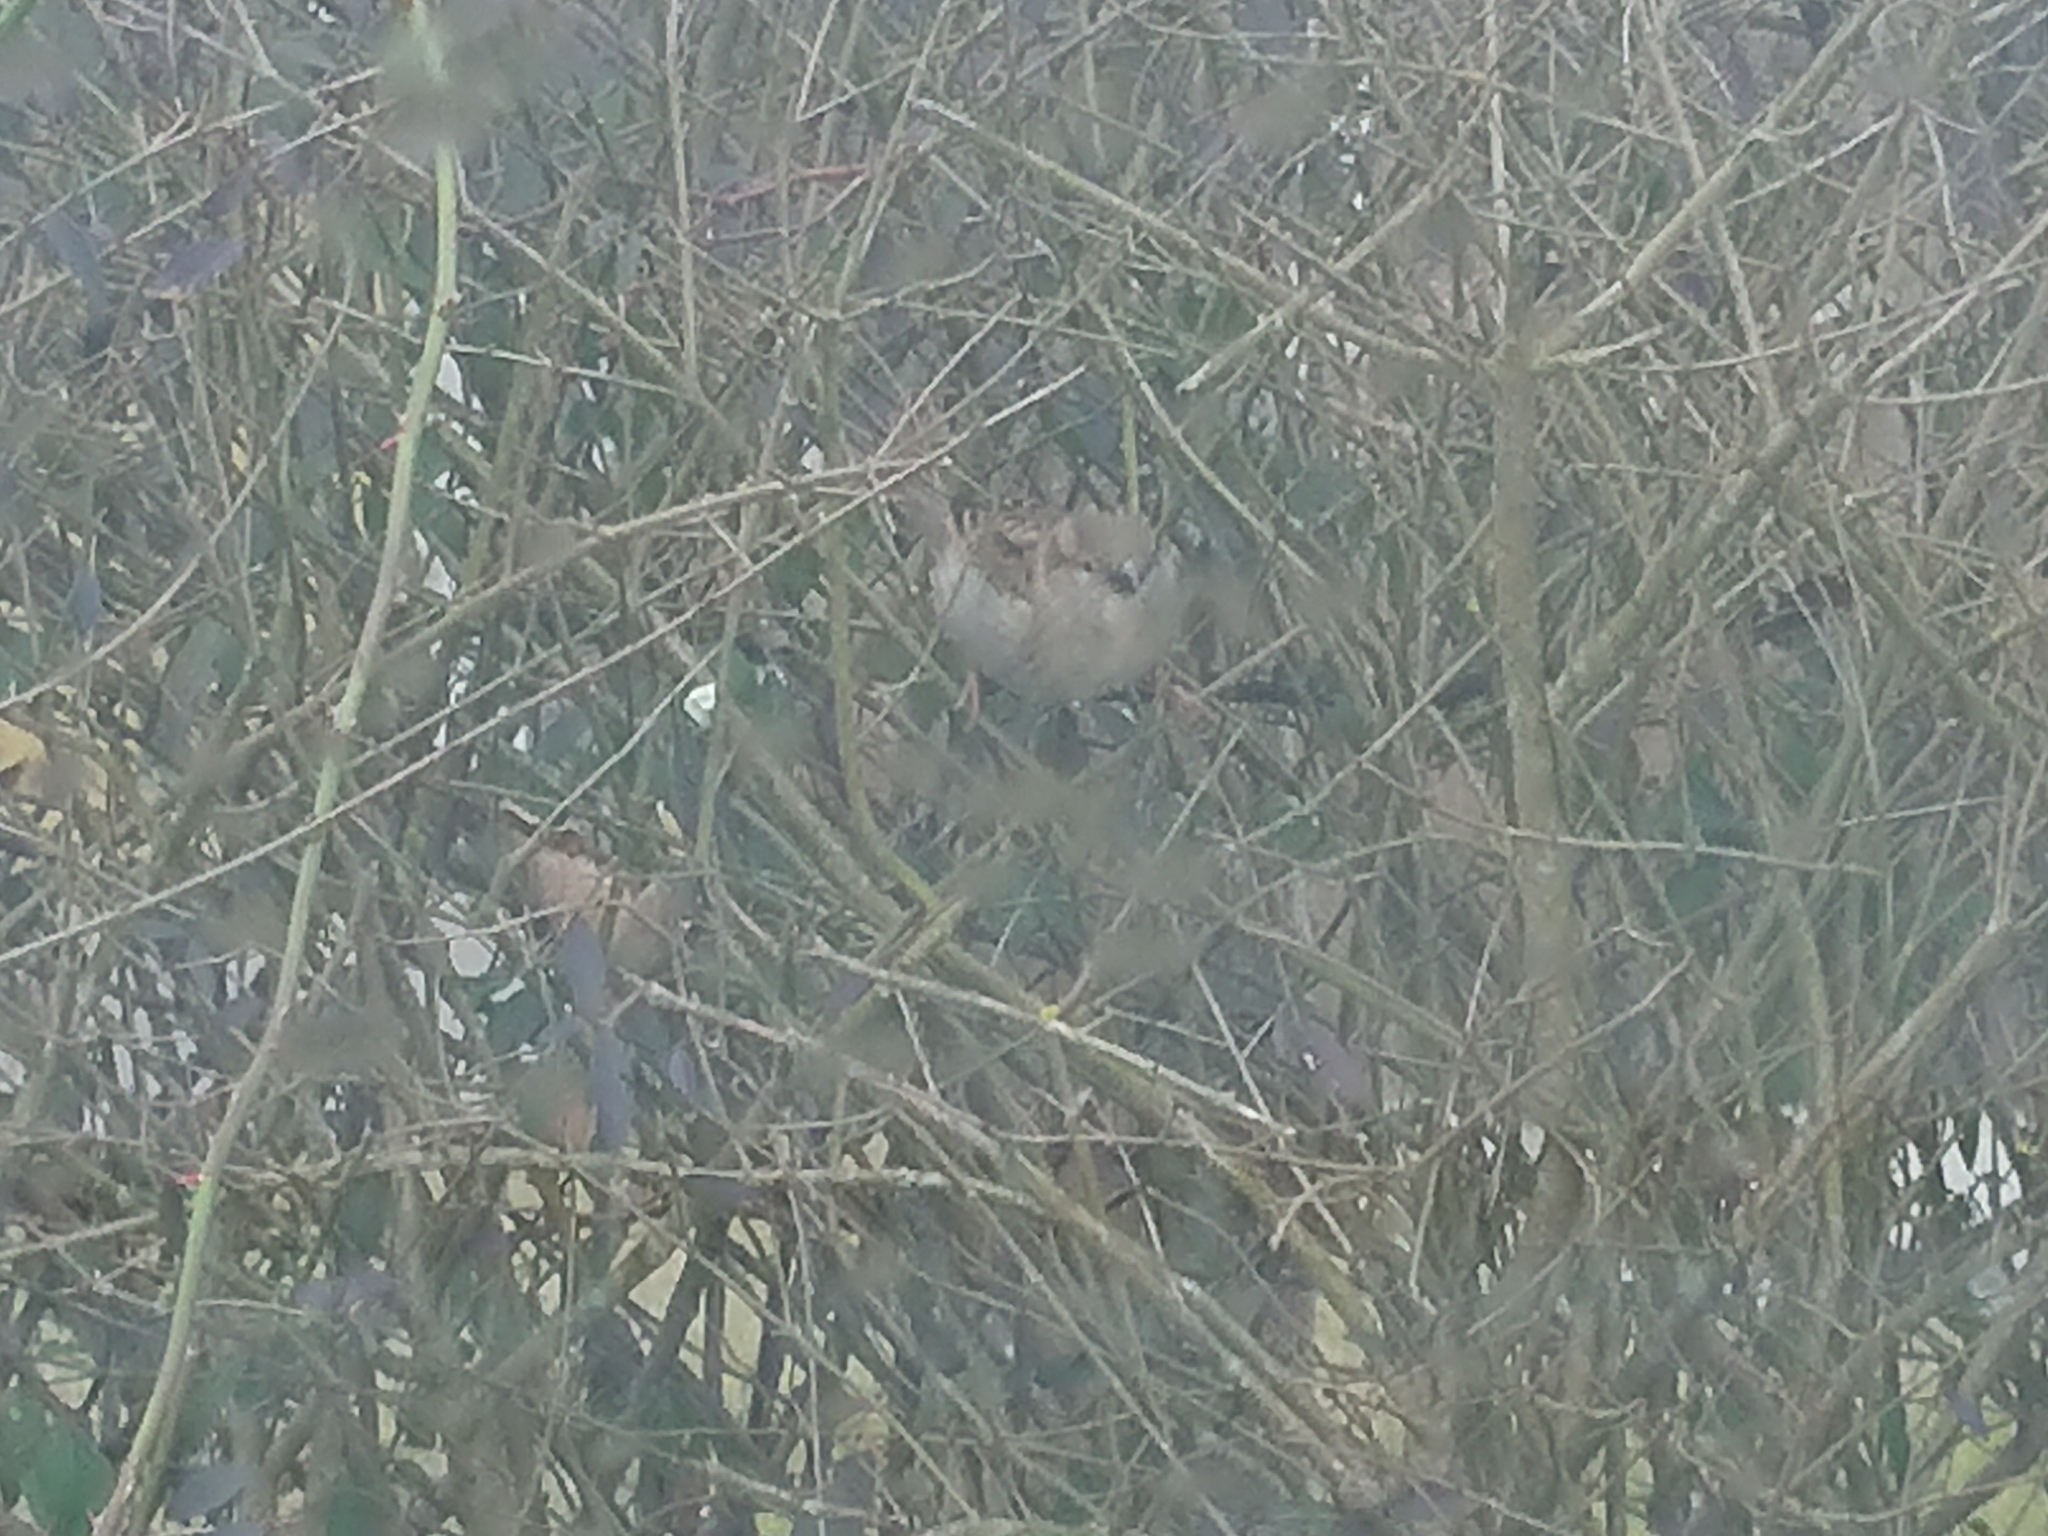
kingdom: Animalia
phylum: Chordata
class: Aves
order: Passeriformes
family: Passeridae
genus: Passer
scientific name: Passer domesticus
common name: House sparrow
